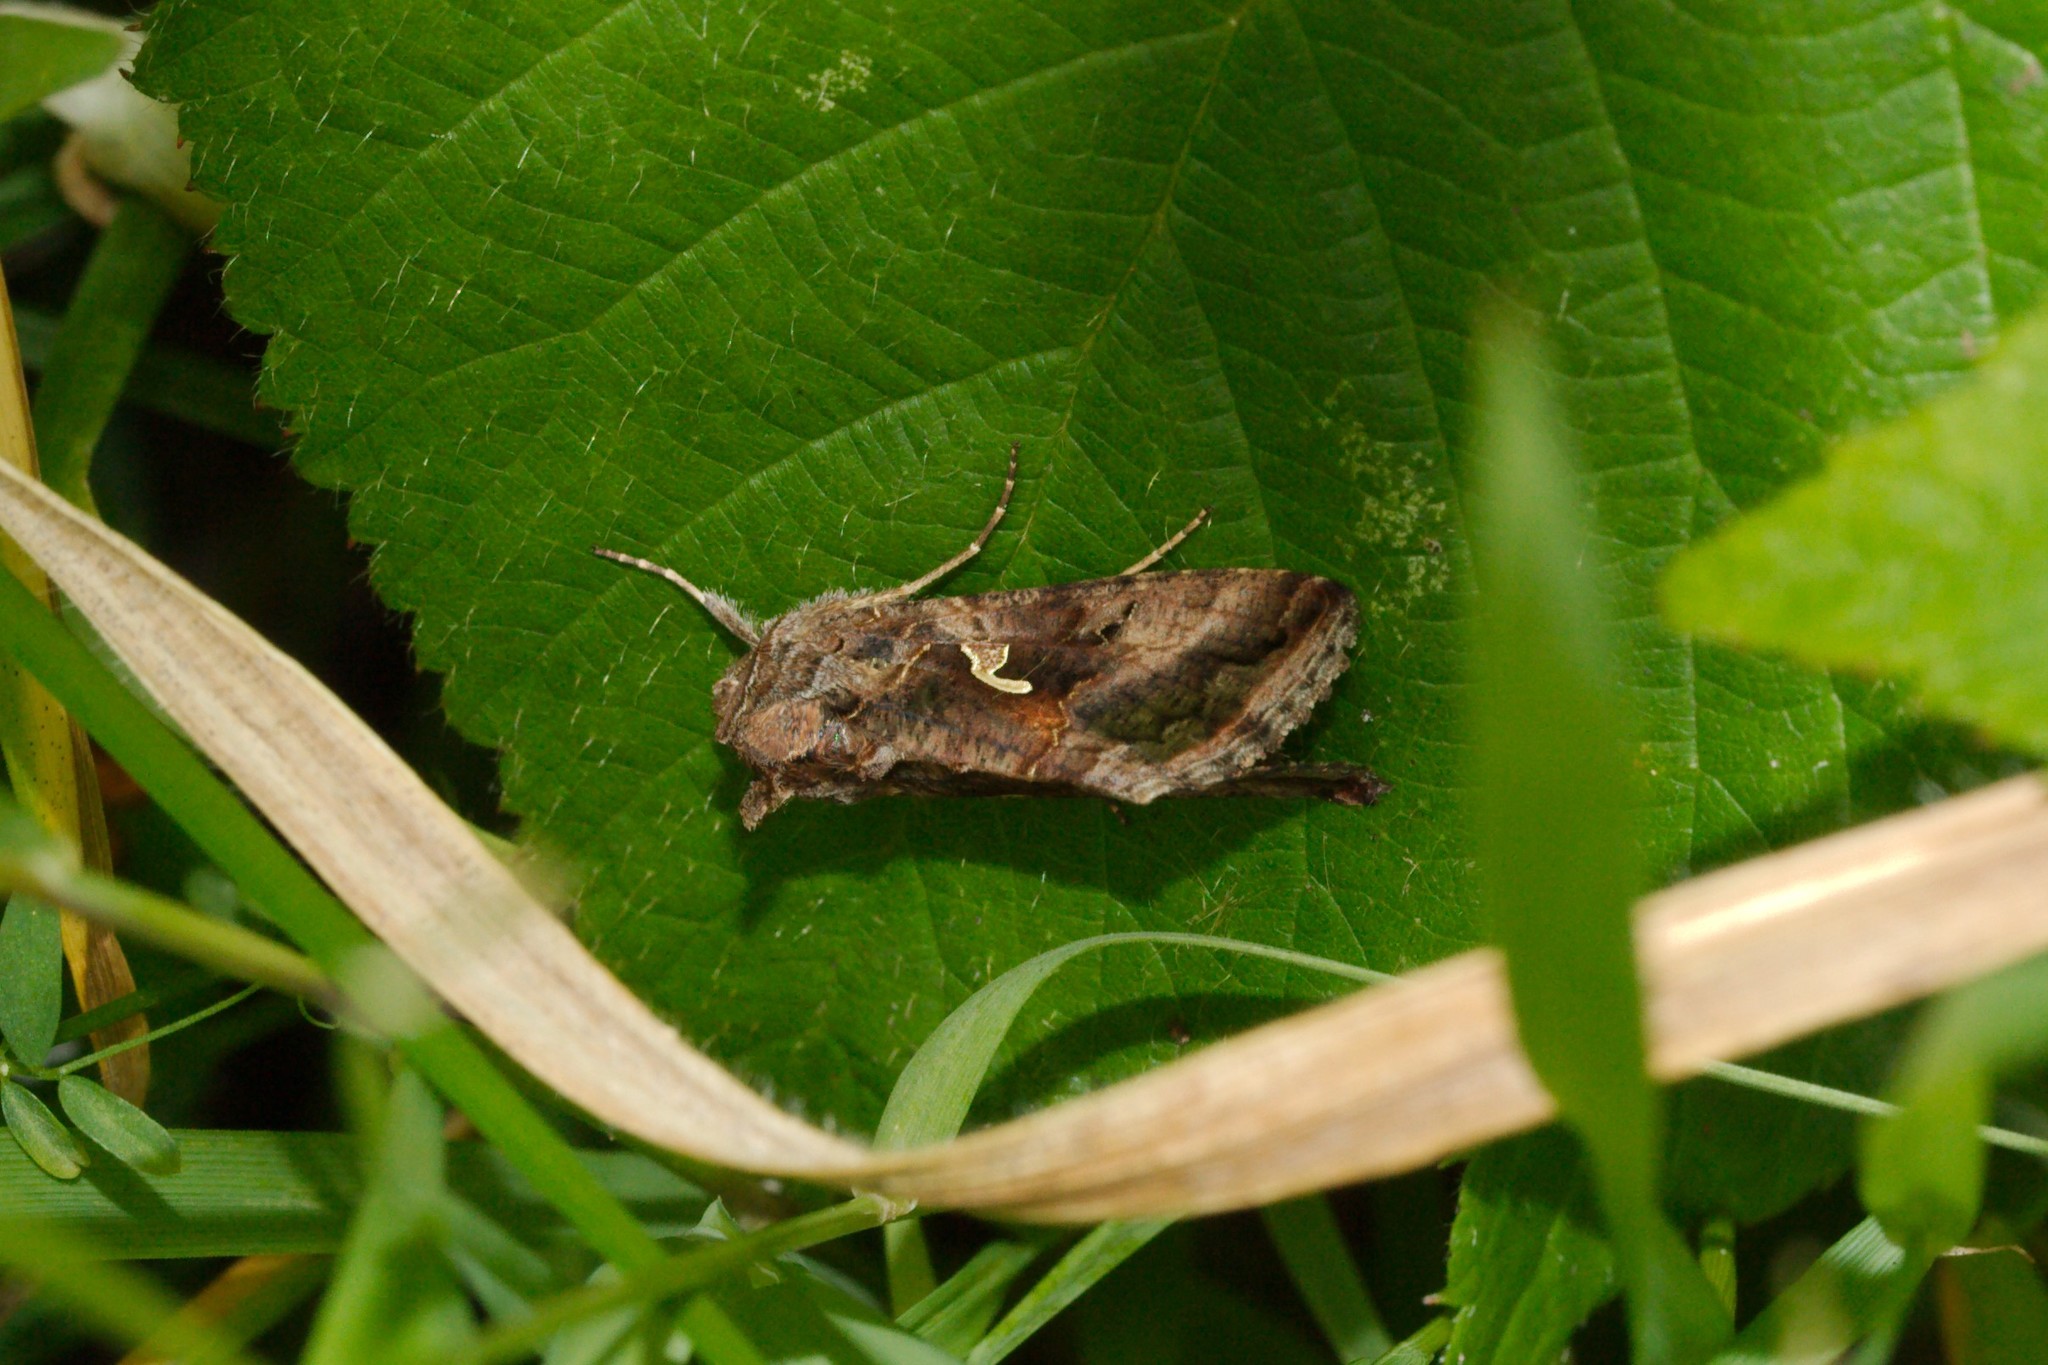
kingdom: Animalia
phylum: Arthropoda
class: Insecta
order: Lepidoptera
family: Noctuidae
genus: Autographa
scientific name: Autographa gamma
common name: Silver y
